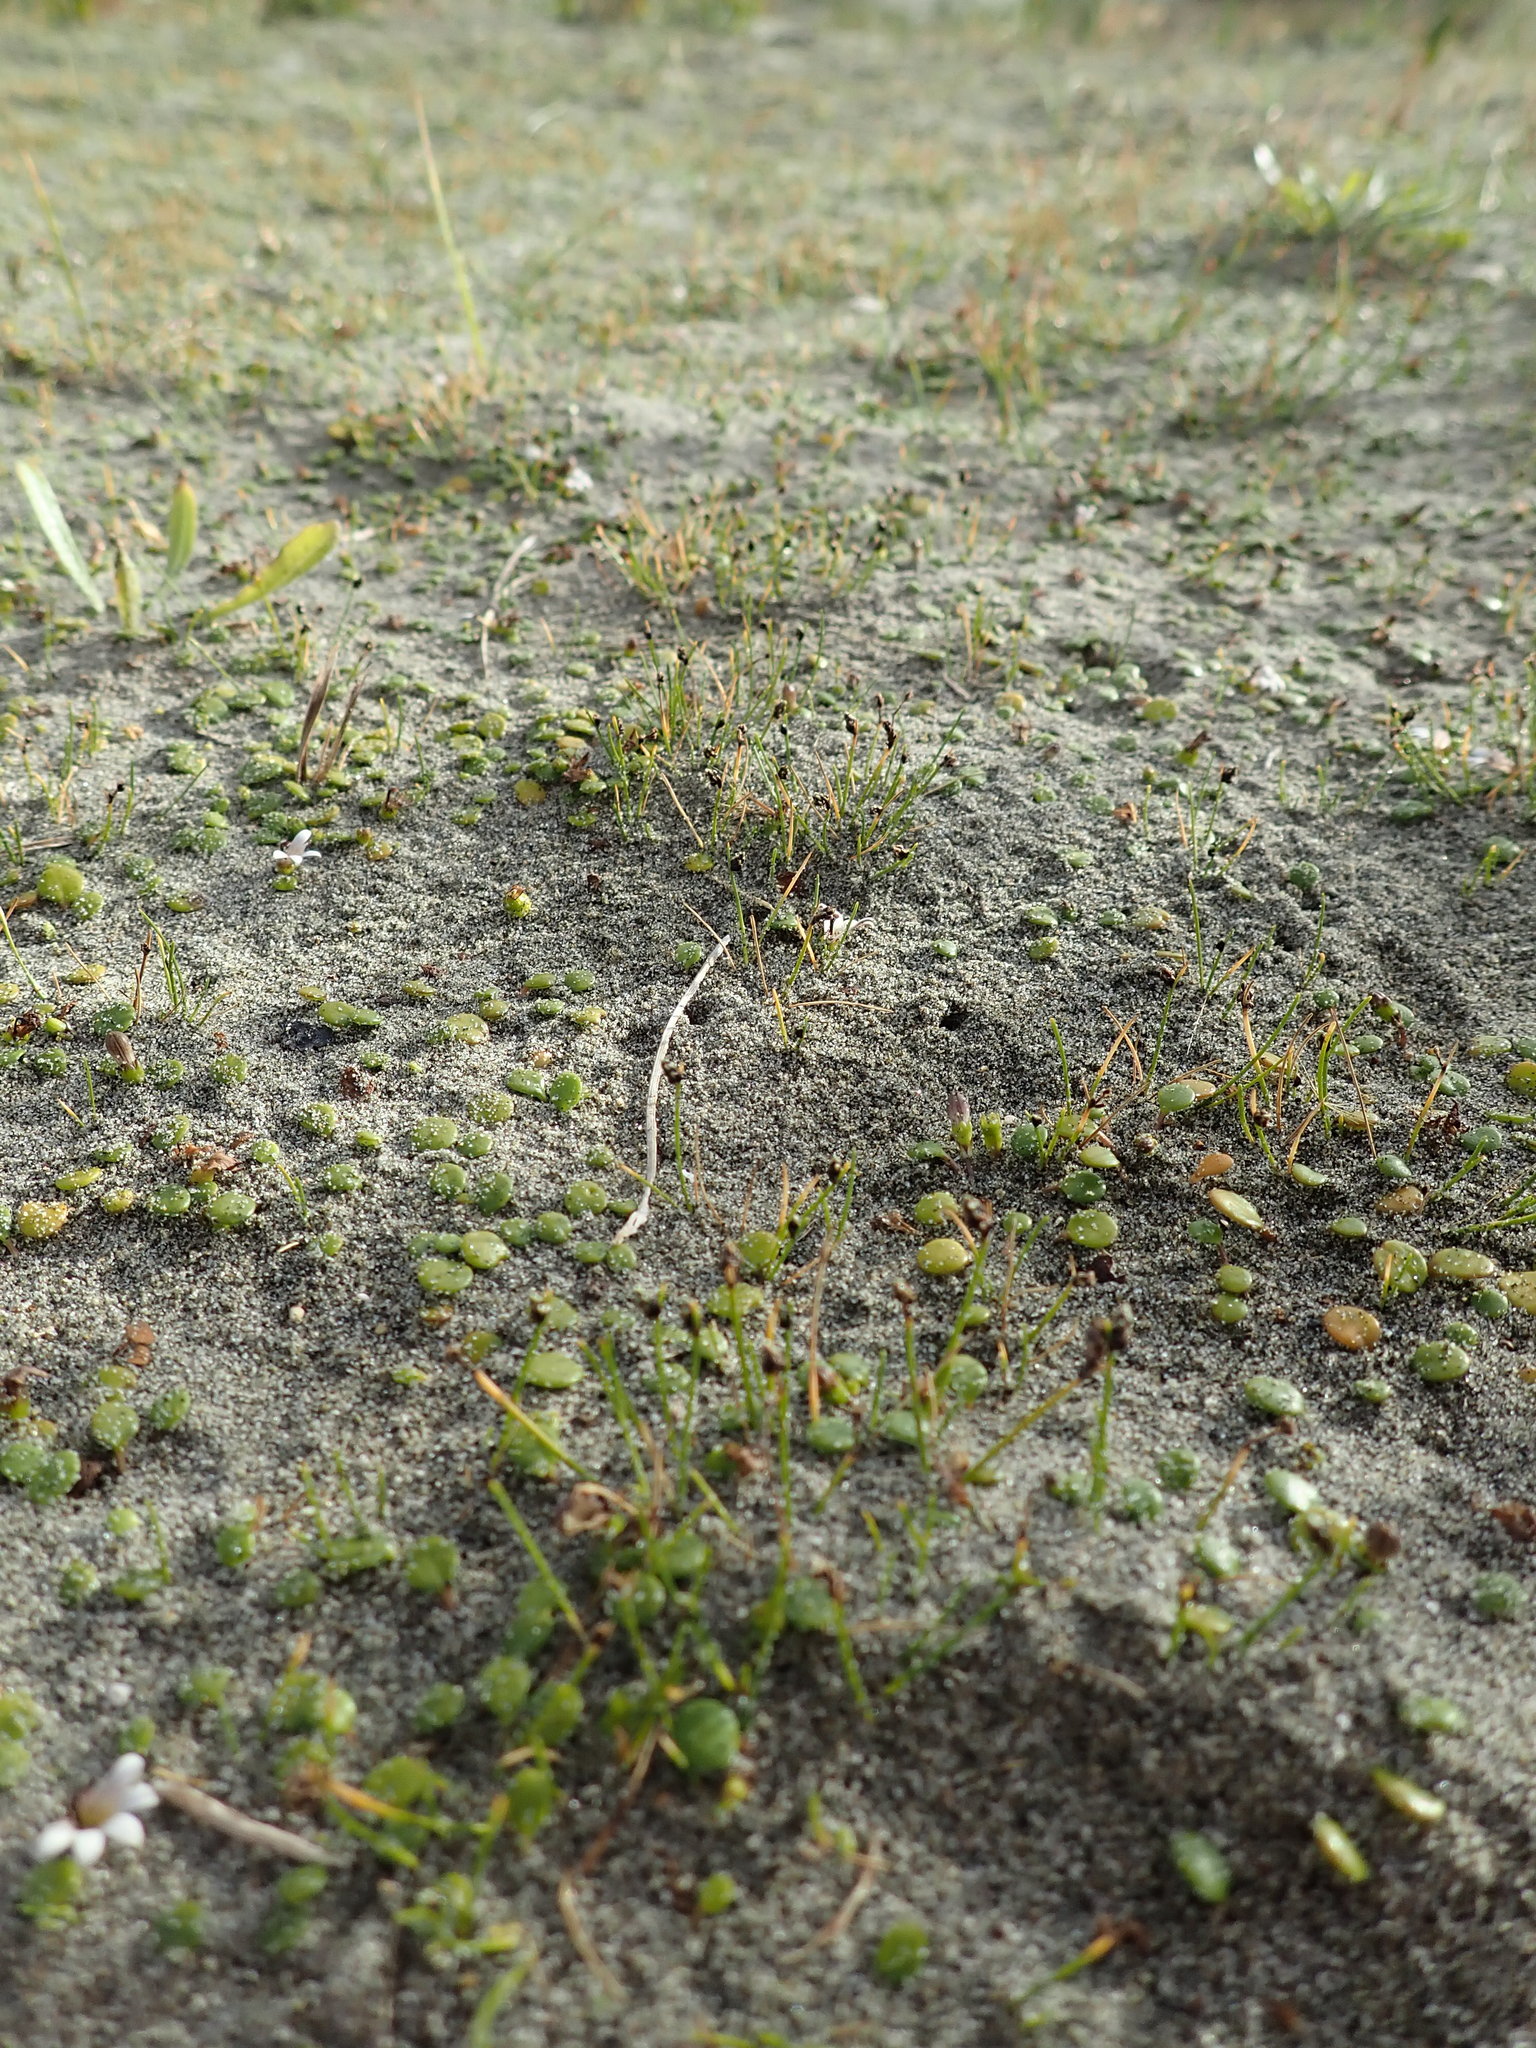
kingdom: Plantae
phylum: Tracheophyta
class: Liliopsida
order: Poales
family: Cyperaceae
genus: Isolepis
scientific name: Isolepis cernua
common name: Slender club-rush
